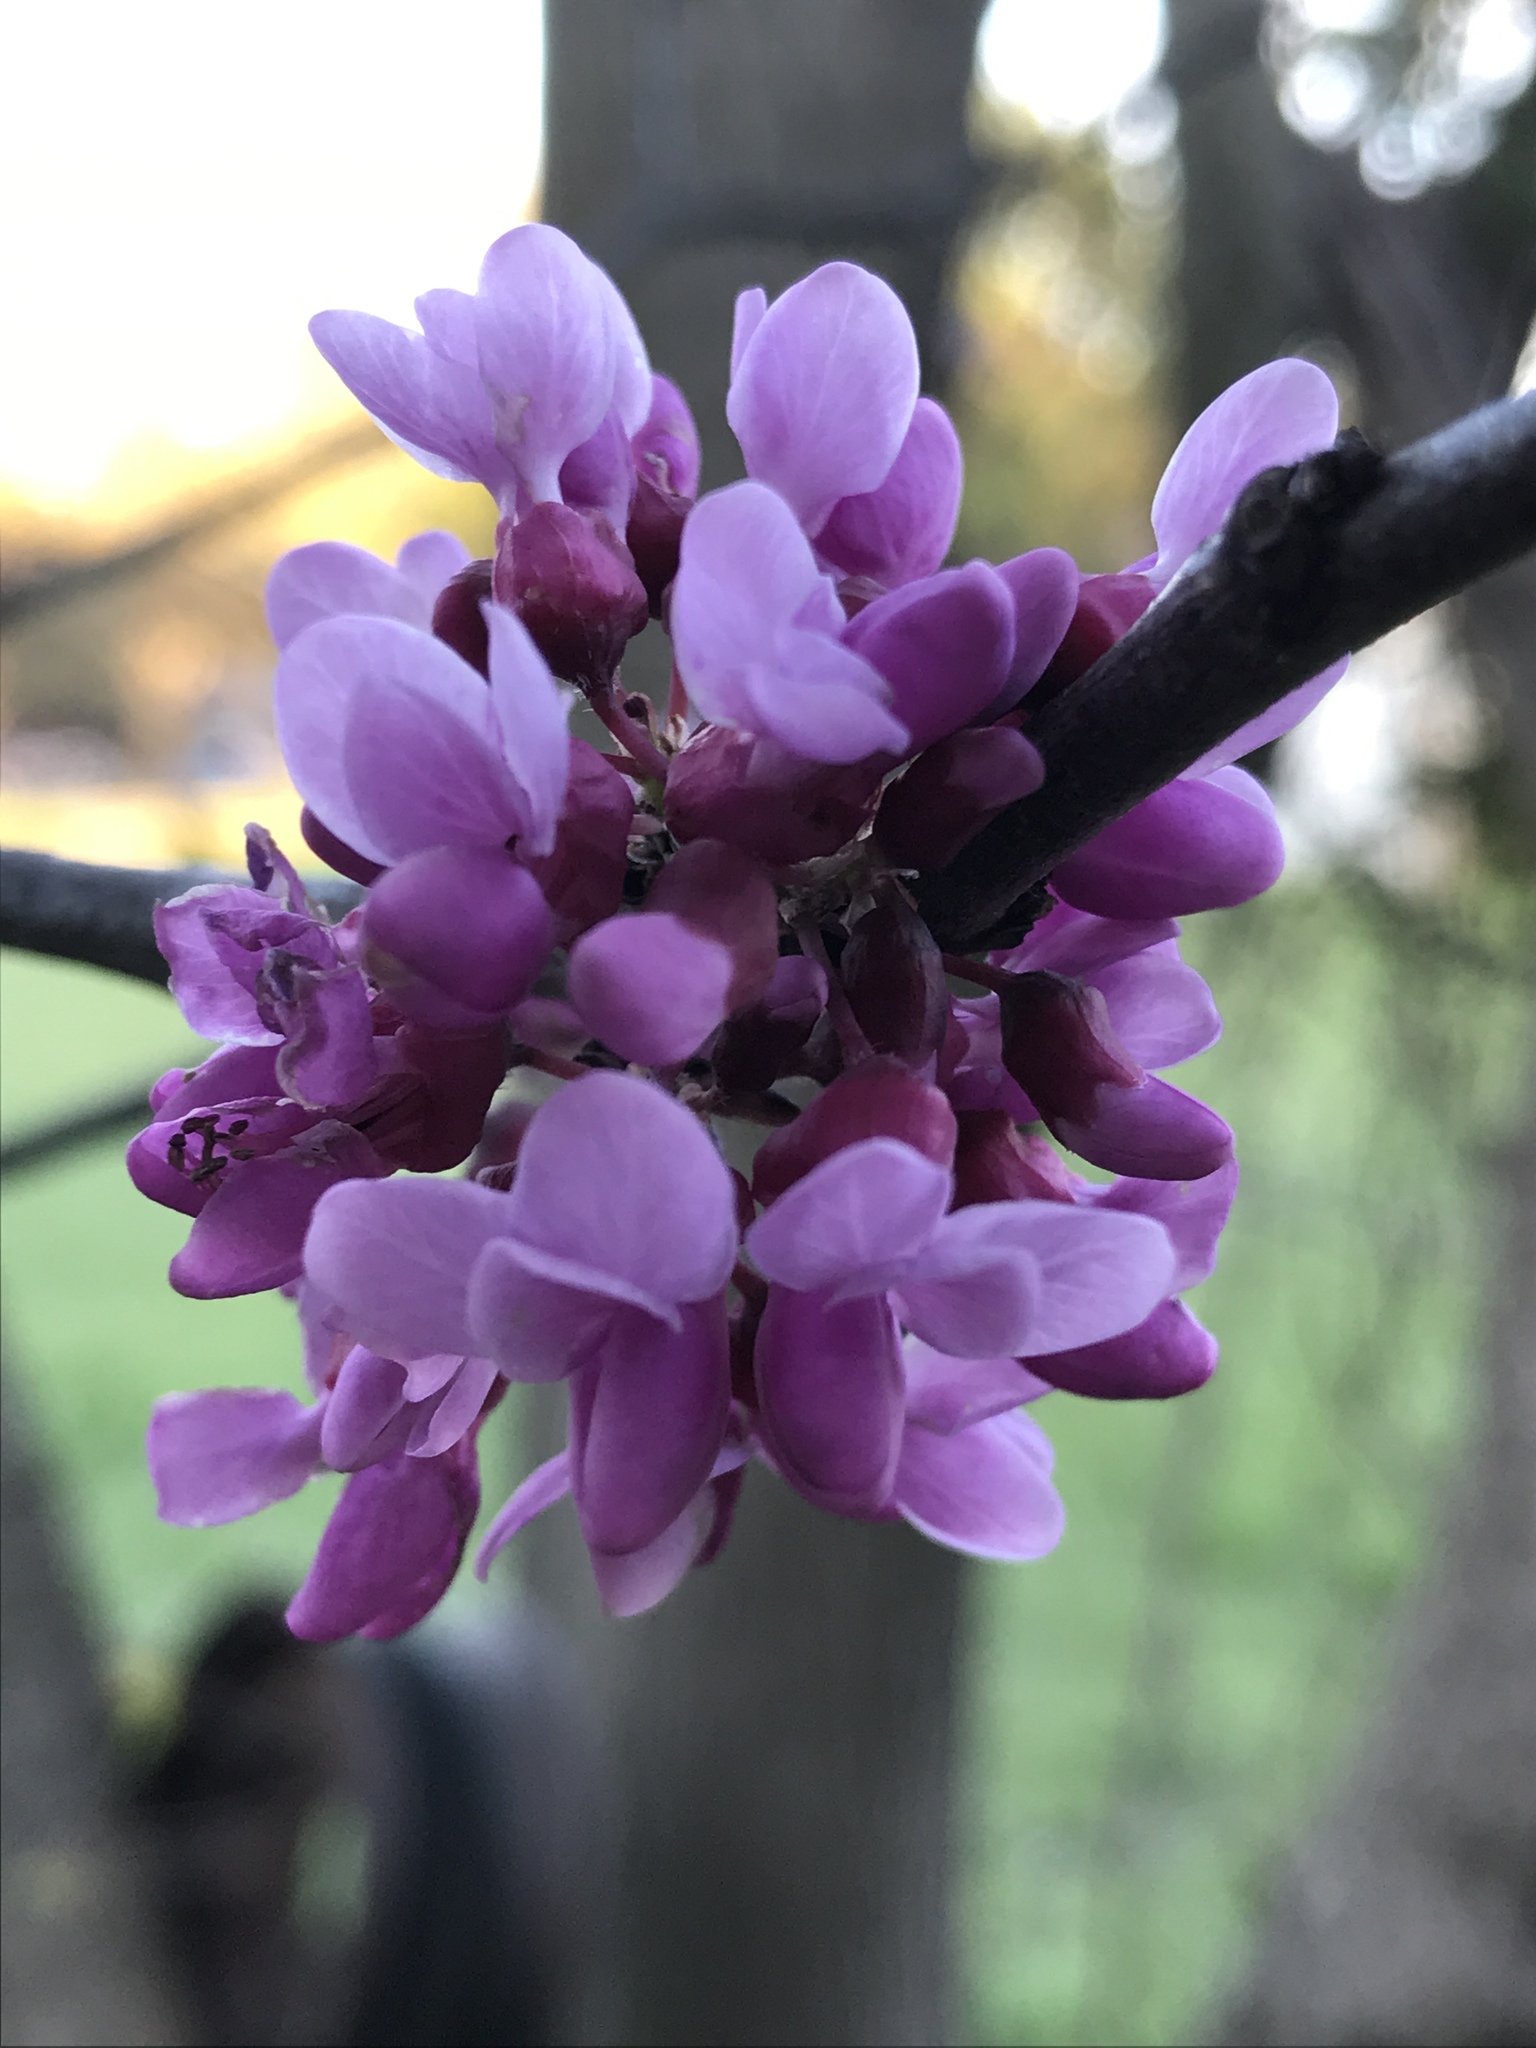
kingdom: Plantae
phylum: Tracheophyta
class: Magnoliopsida
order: Fabales
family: Fabaceae
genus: Cercis
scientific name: Cercis canadensis
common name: Eastern redbud
